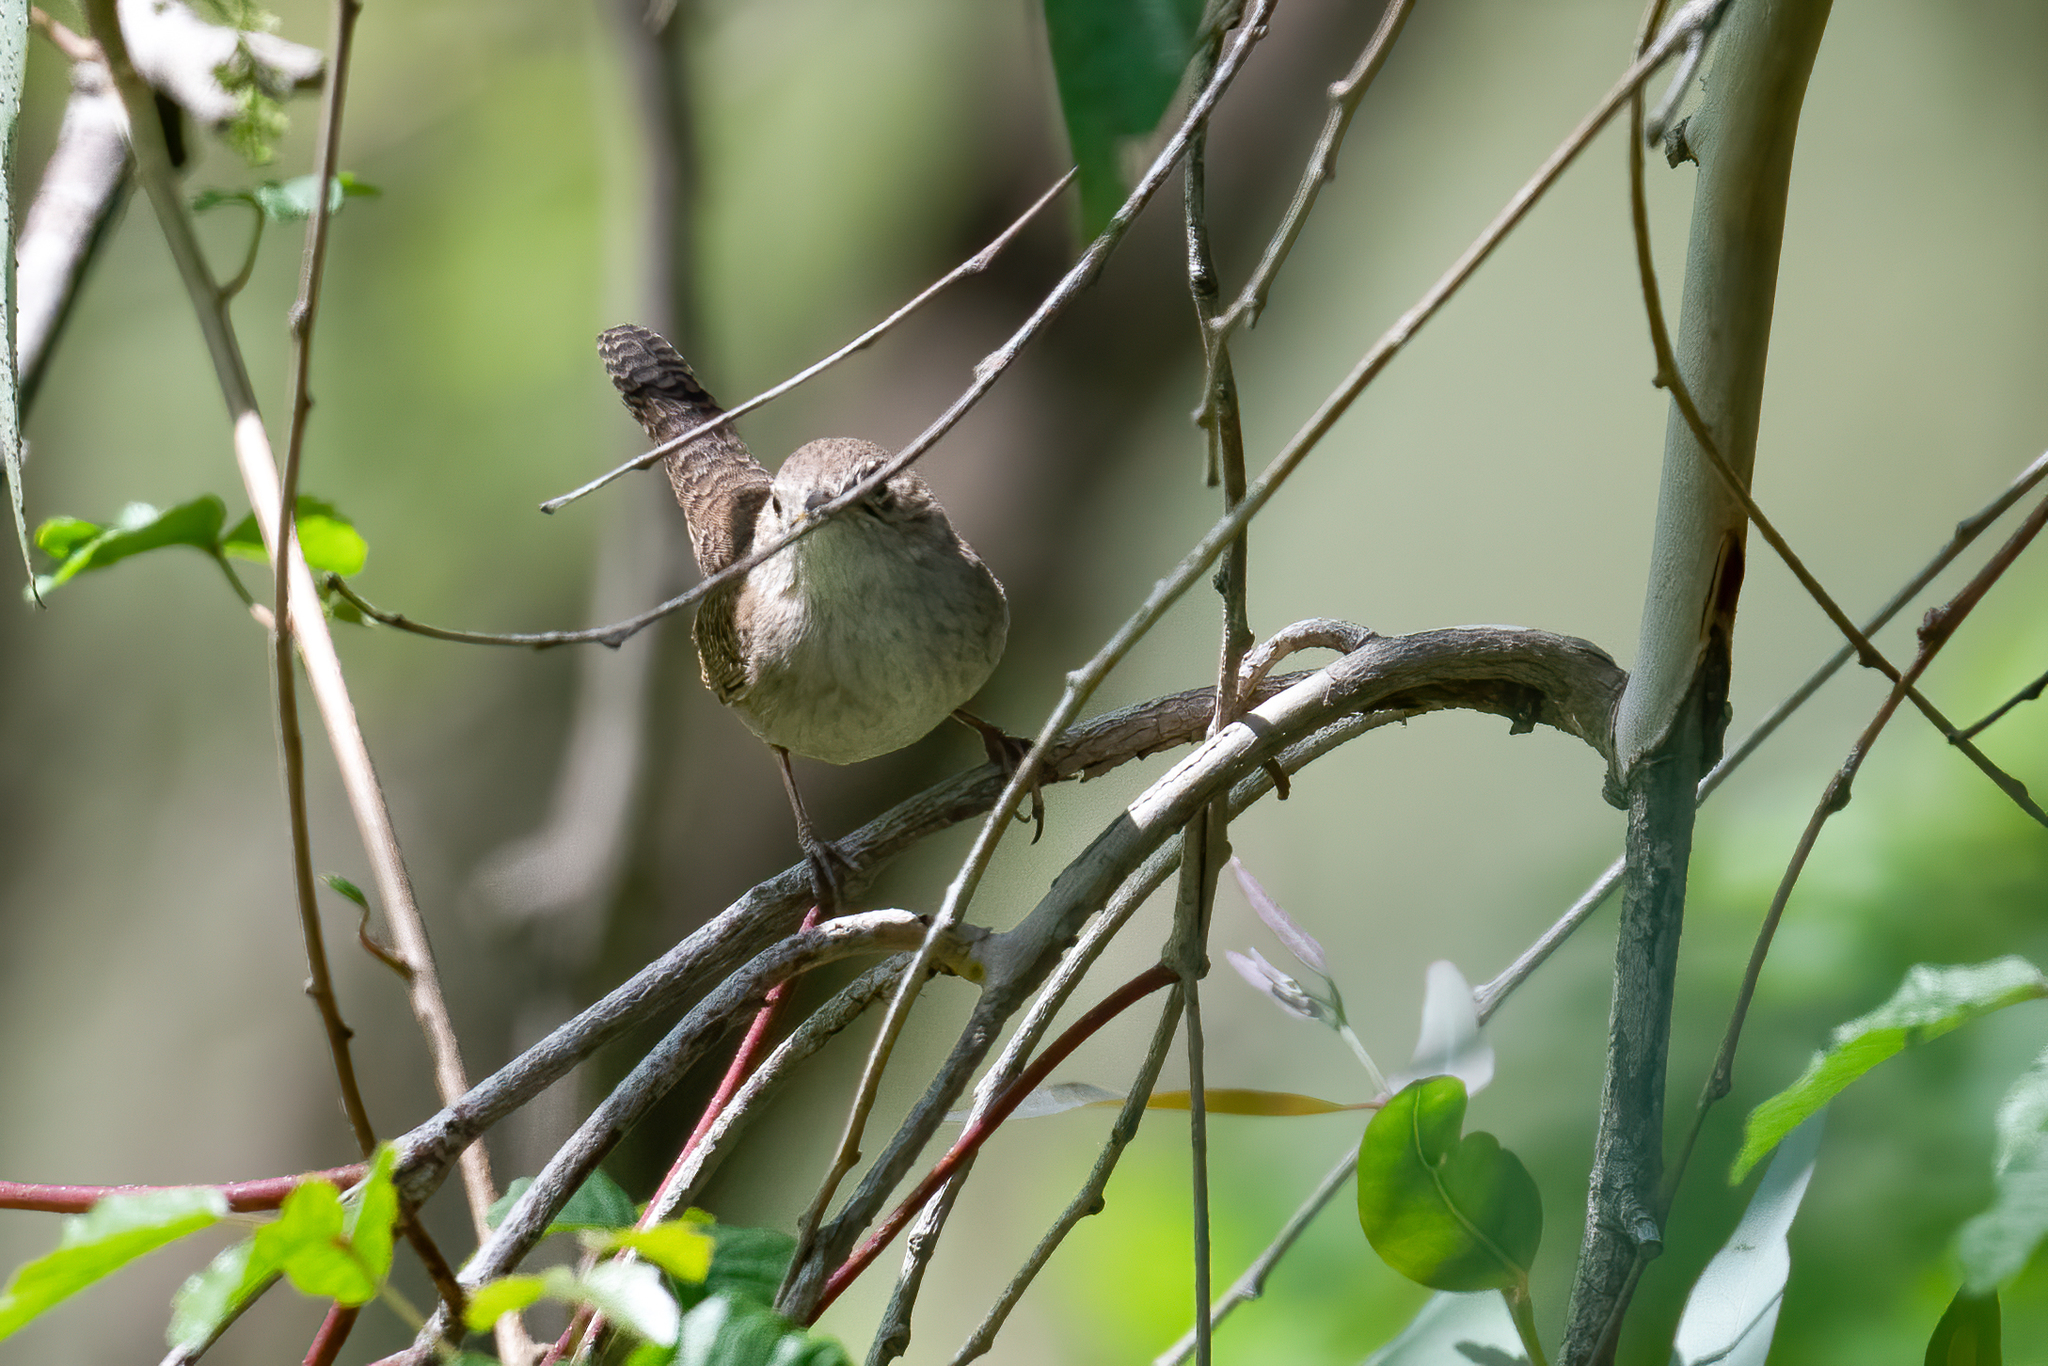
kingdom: Animalia
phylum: Chordata
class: Aves
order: Passeriformes
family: Troglodytidae
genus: Troglodytes
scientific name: Troglodytes aedon
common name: House wren
